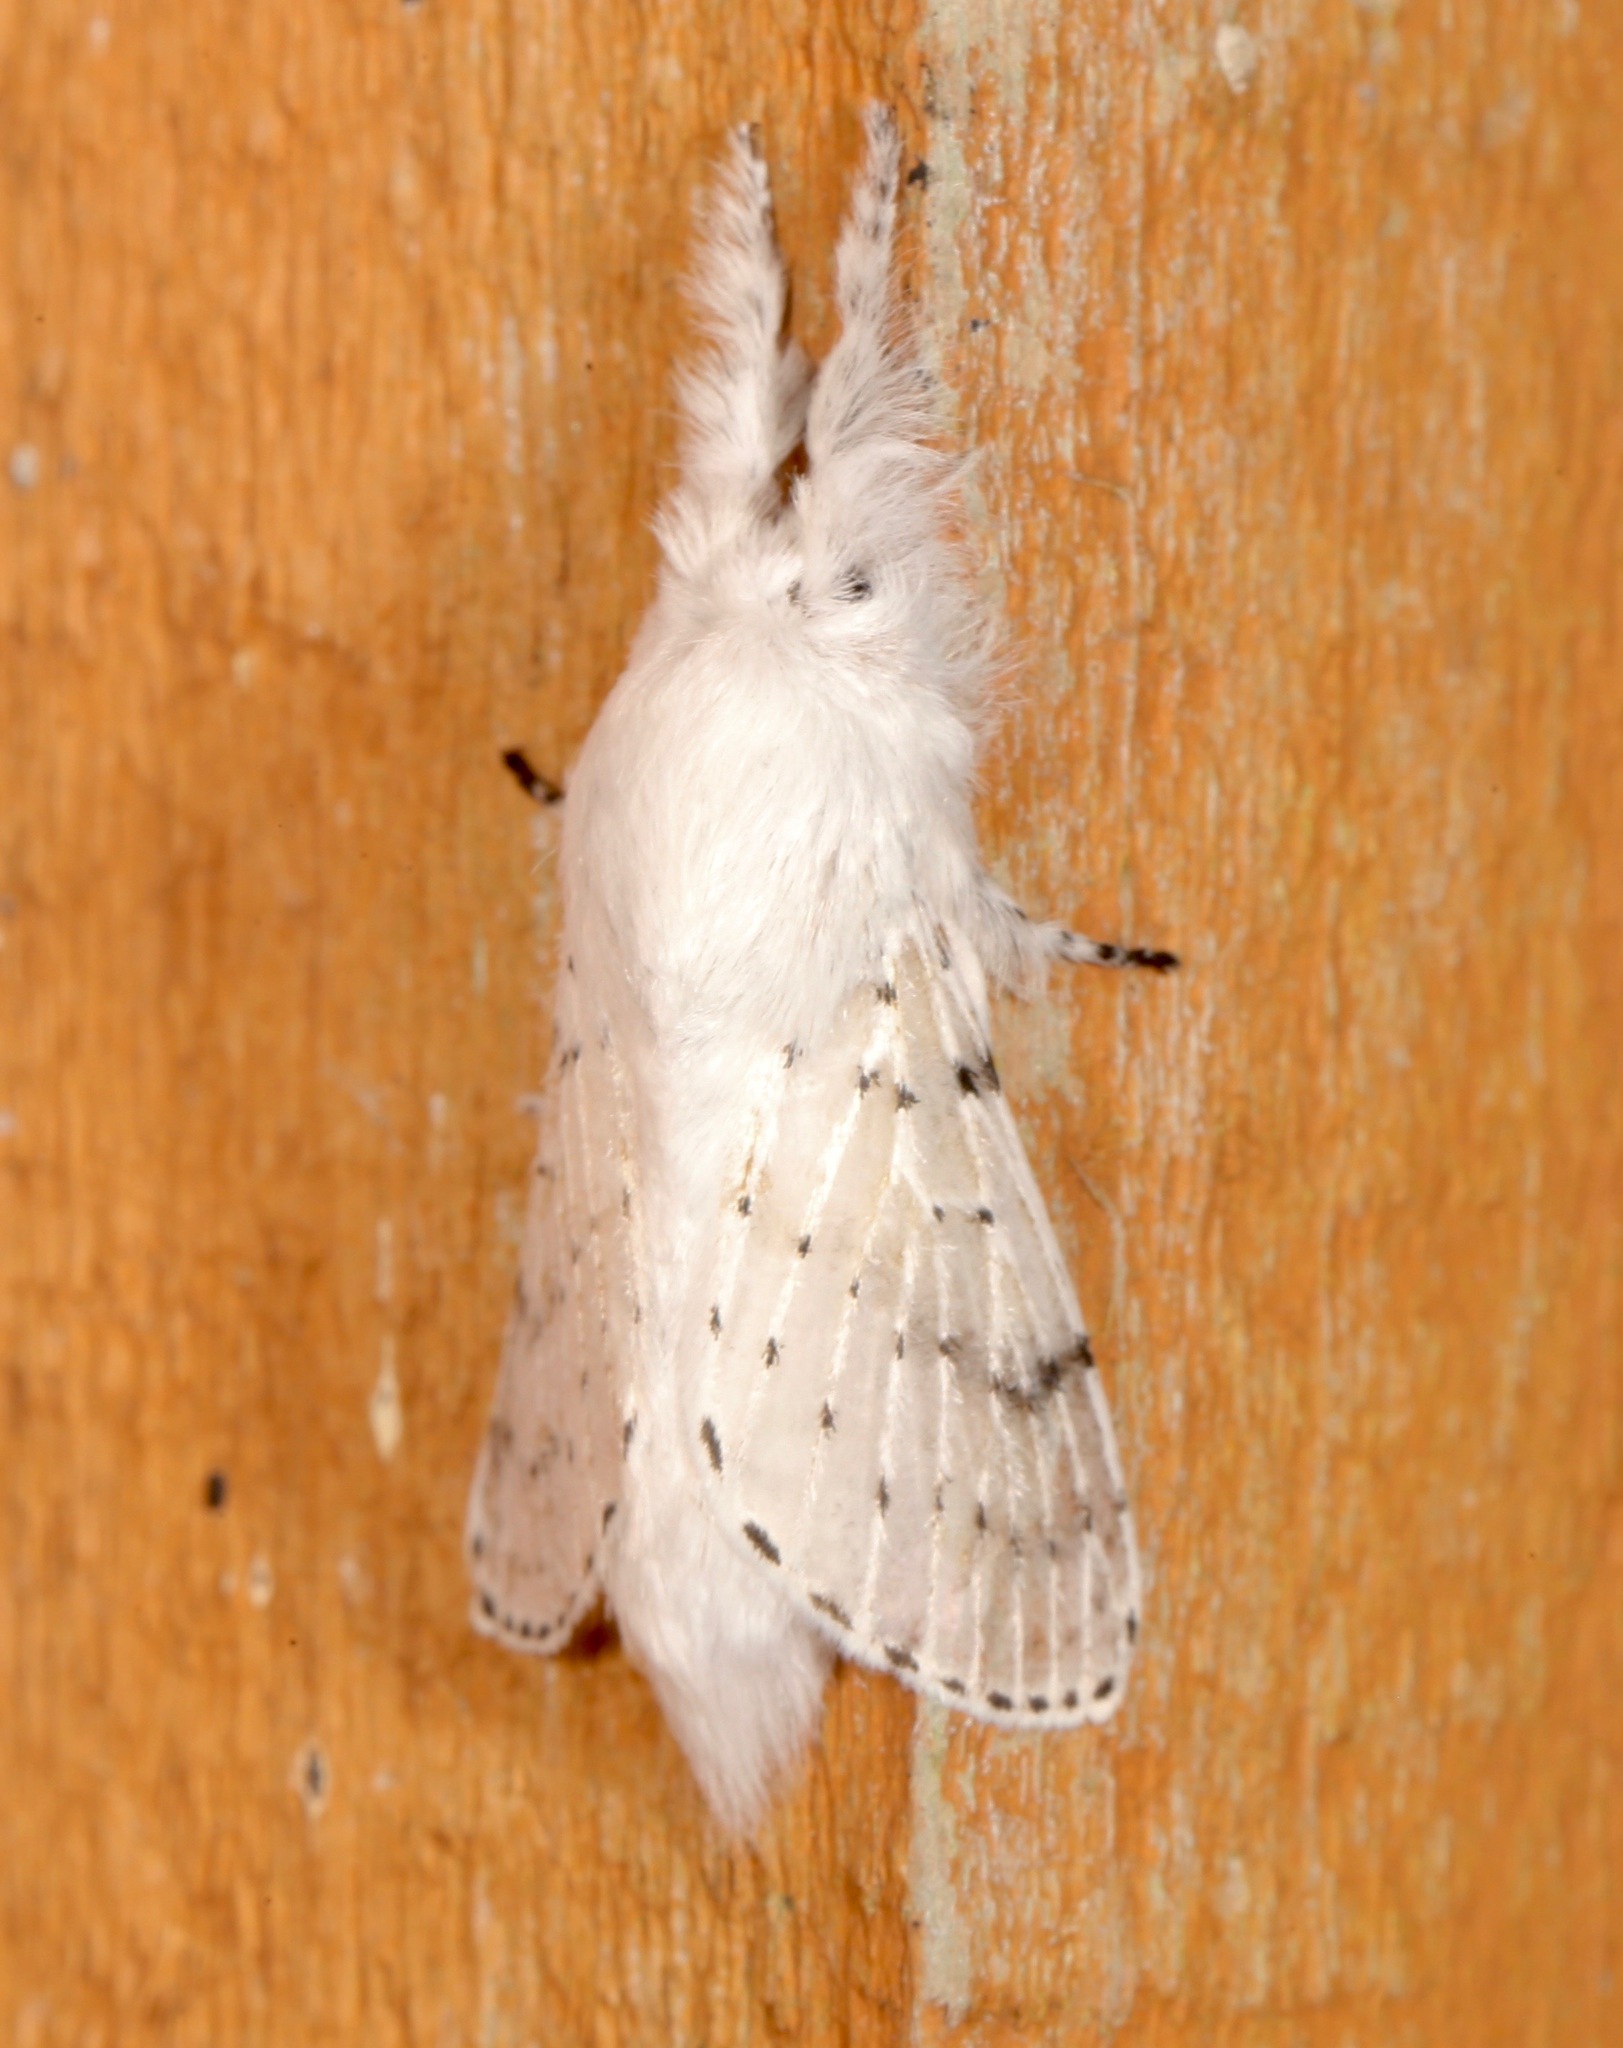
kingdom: Animalia
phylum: Arthropoda
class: Insecta
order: Lepidoptera
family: Lasiocampidae
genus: Artace
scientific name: Artace cribrarius
